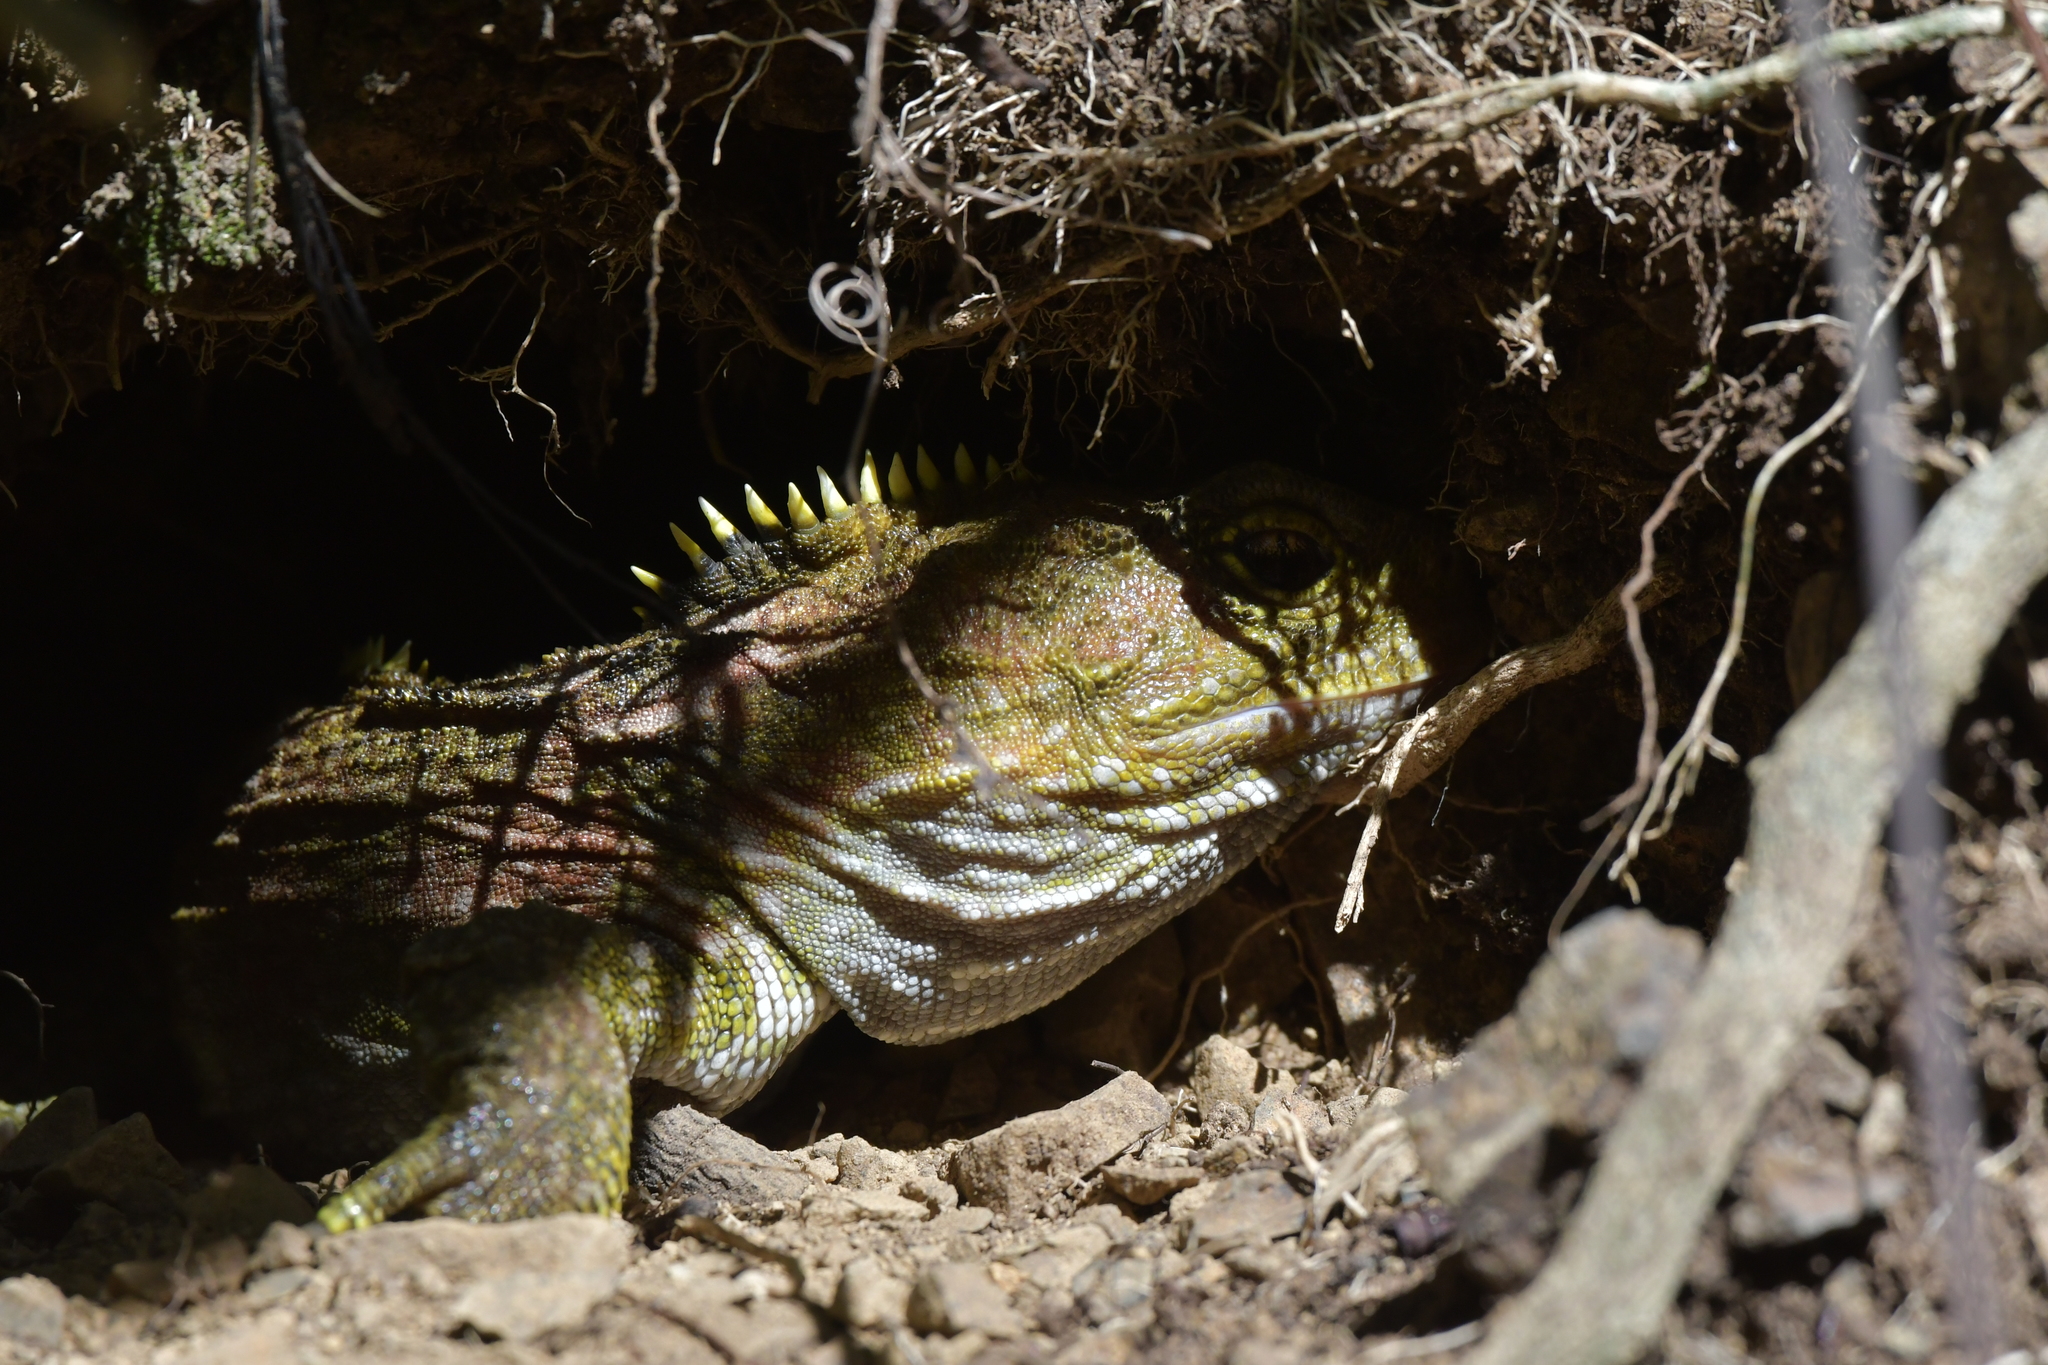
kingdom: Animalia
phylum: Chordata
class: Sphenodontia
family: Sphenodontidae
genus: Sphenodon
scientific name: Sphenodon punctatus
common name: Tuatara
